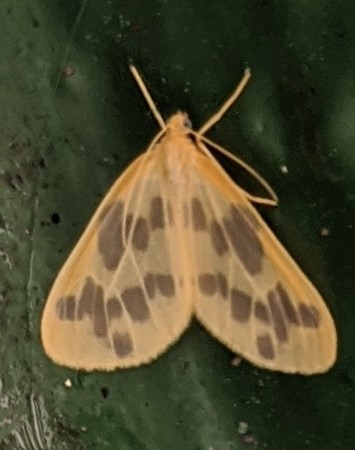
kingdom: Animalia
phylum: Arthropoda
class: Insecta
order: Lepidoptera
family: Geometridae
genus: Eubaphe
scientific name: Eubaphe mendica
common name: Beggar
